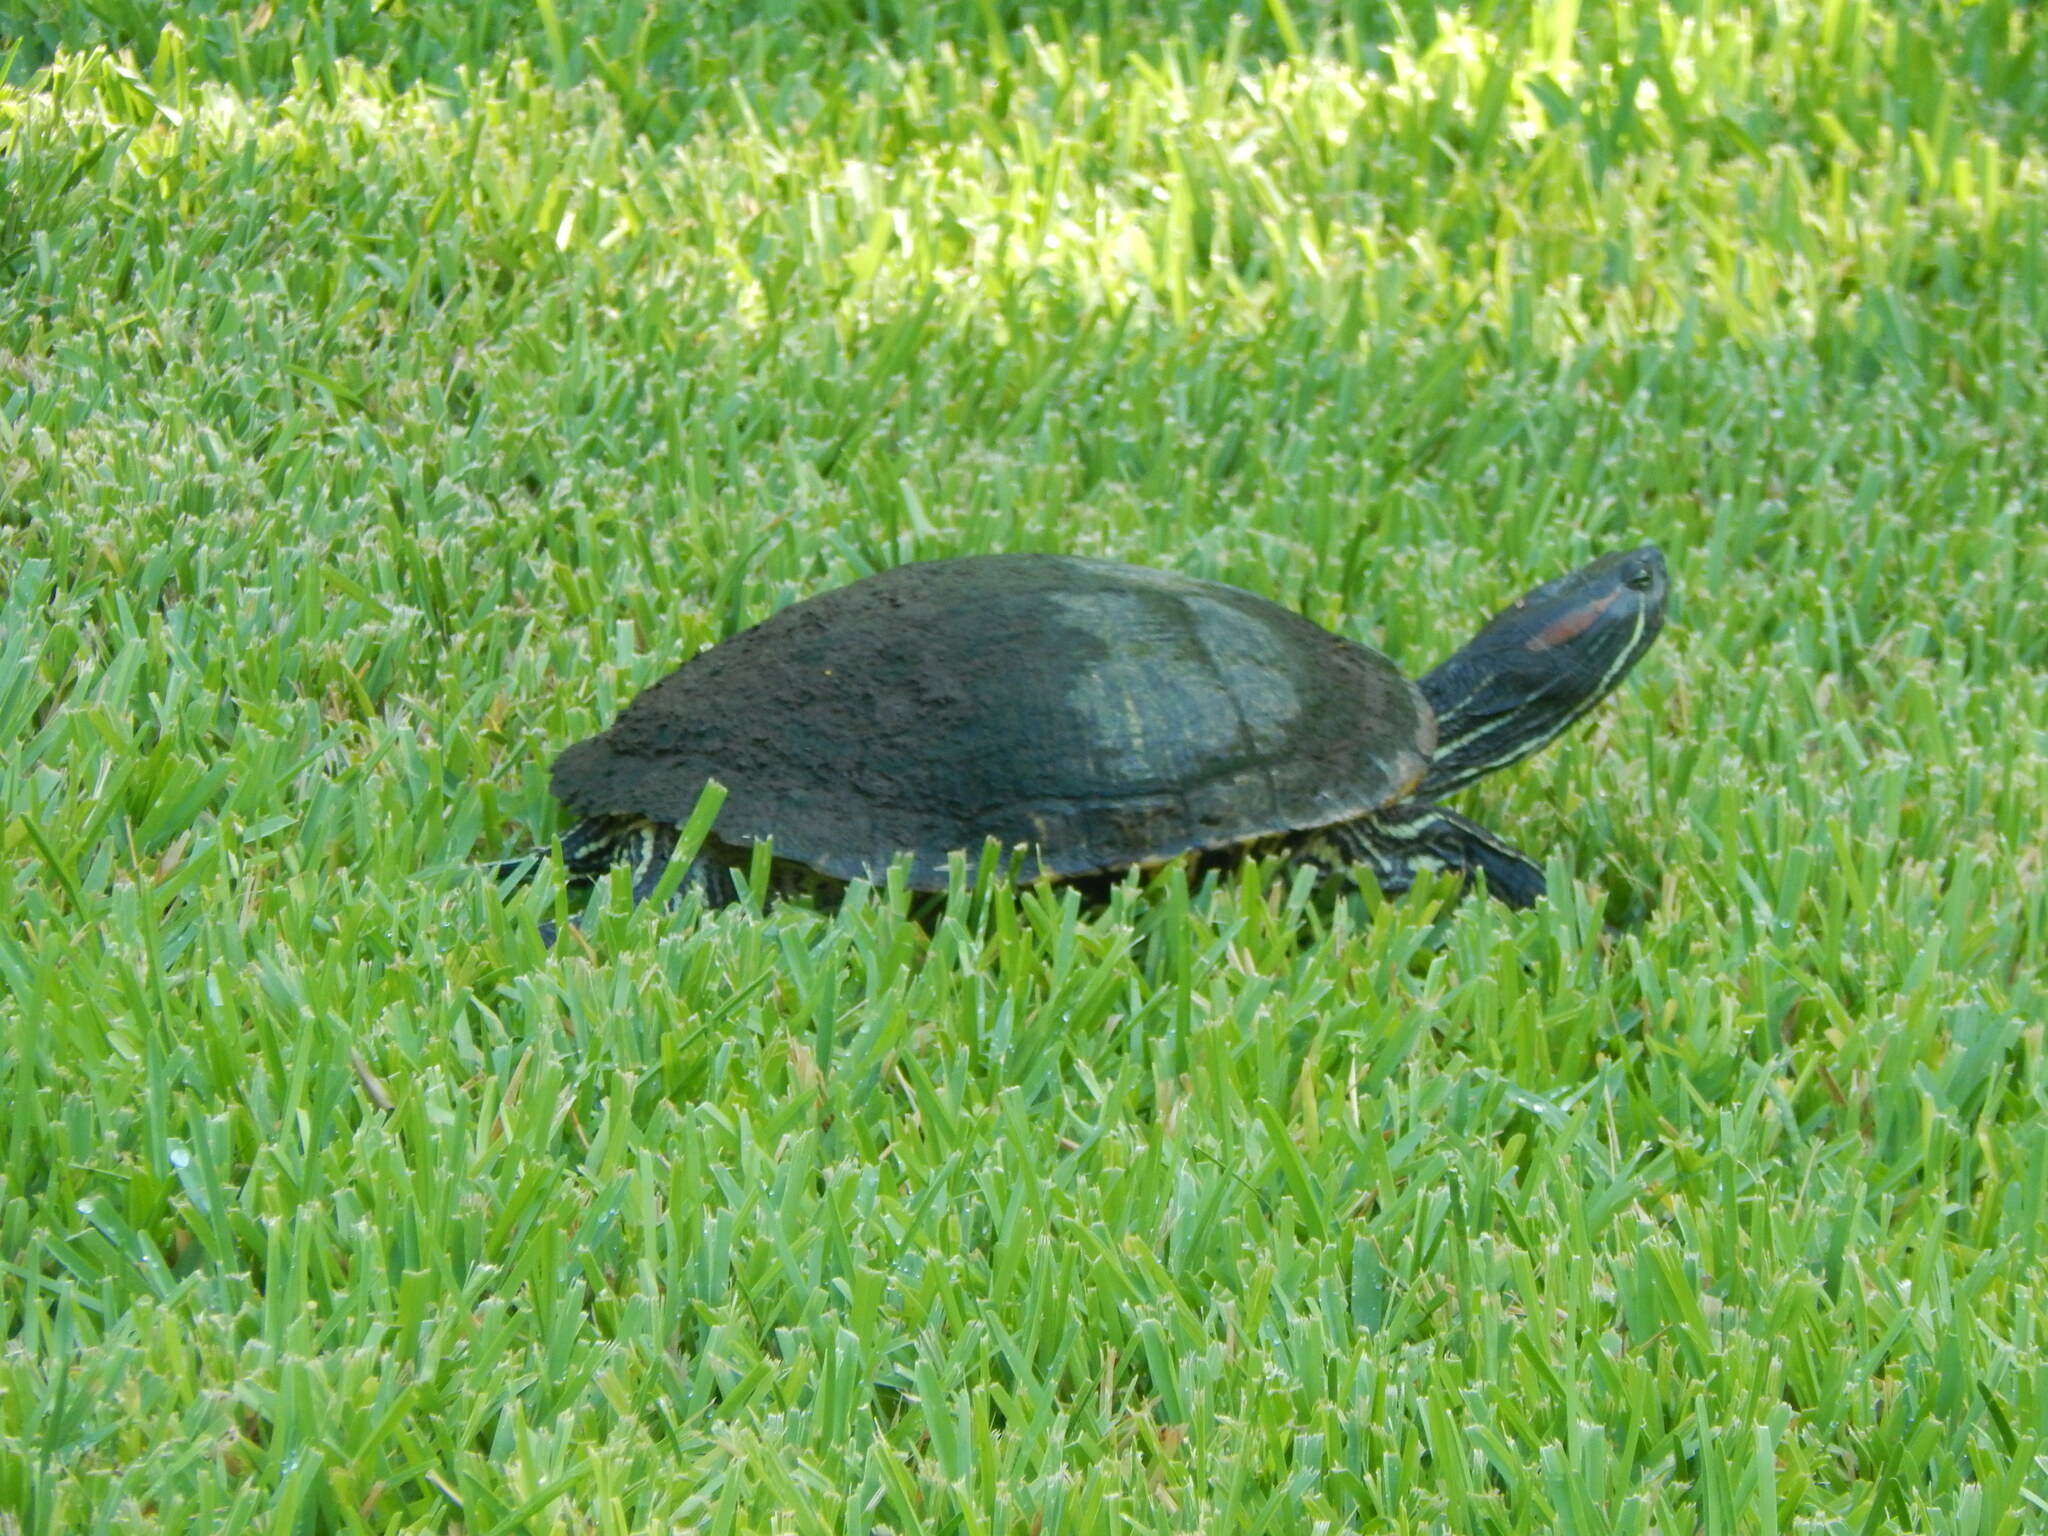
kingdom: Animalia
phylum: Chordata
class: Testudines
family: Emydidae
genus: Trachemys
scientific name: Trachemys scripta
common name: Slider
